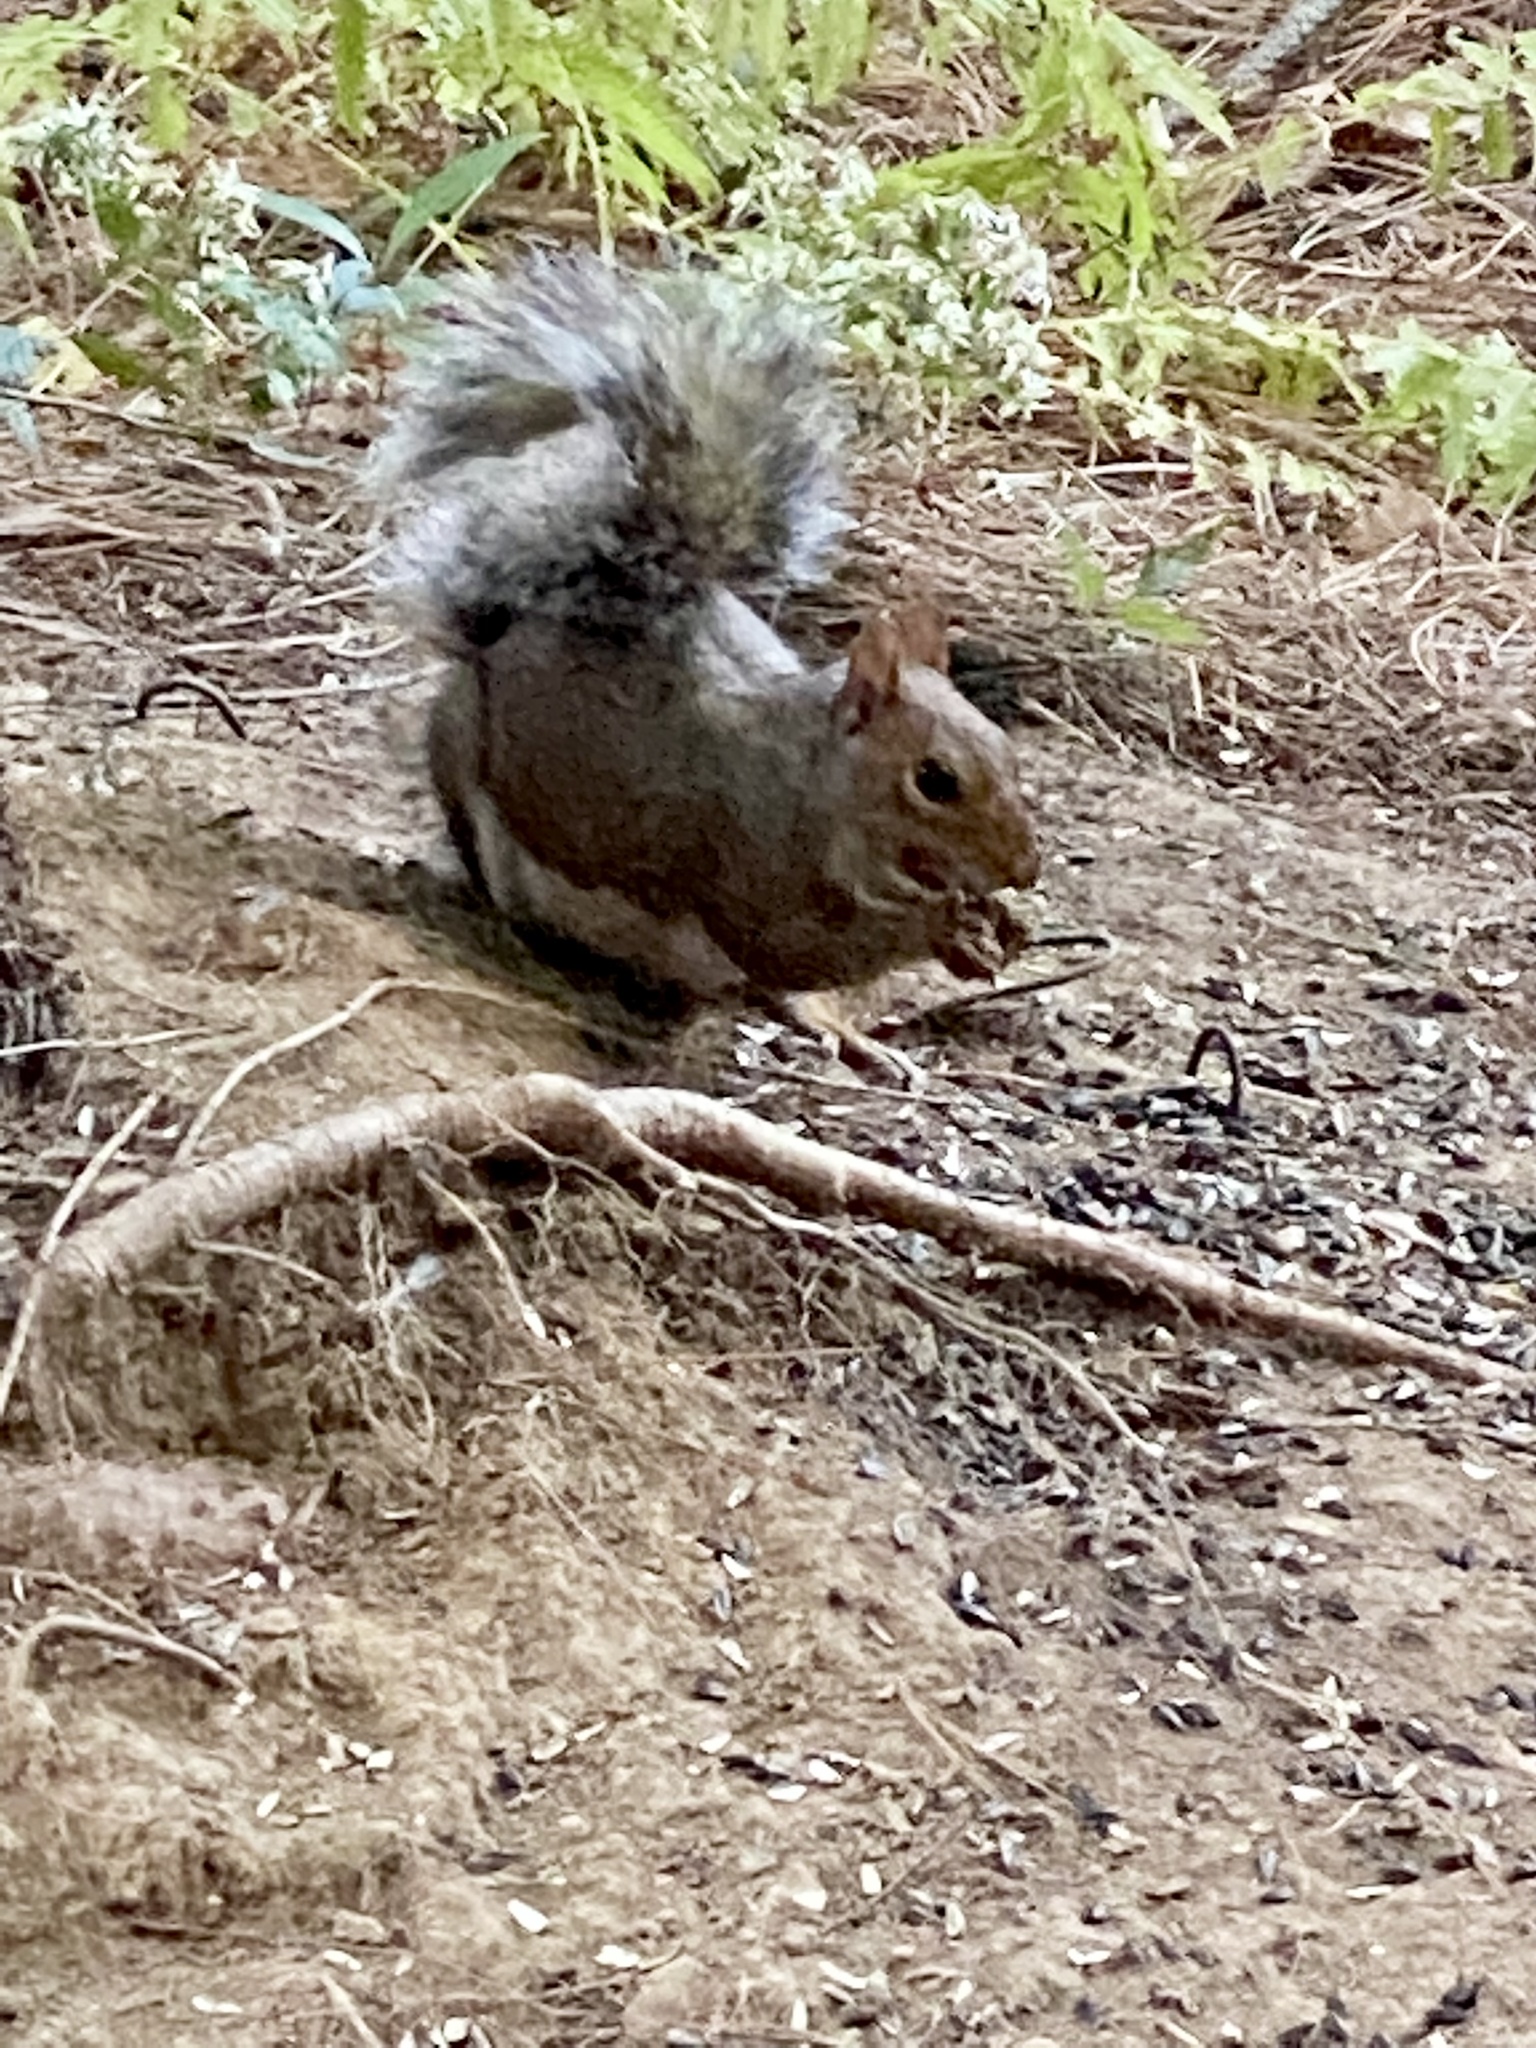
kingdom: Animalia
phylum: Chordata
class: Mammalia
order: Rodentia
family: Sciuridae
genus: Sciurus
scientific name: Sciurus carolinensis
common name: Eastern gray squirrel
